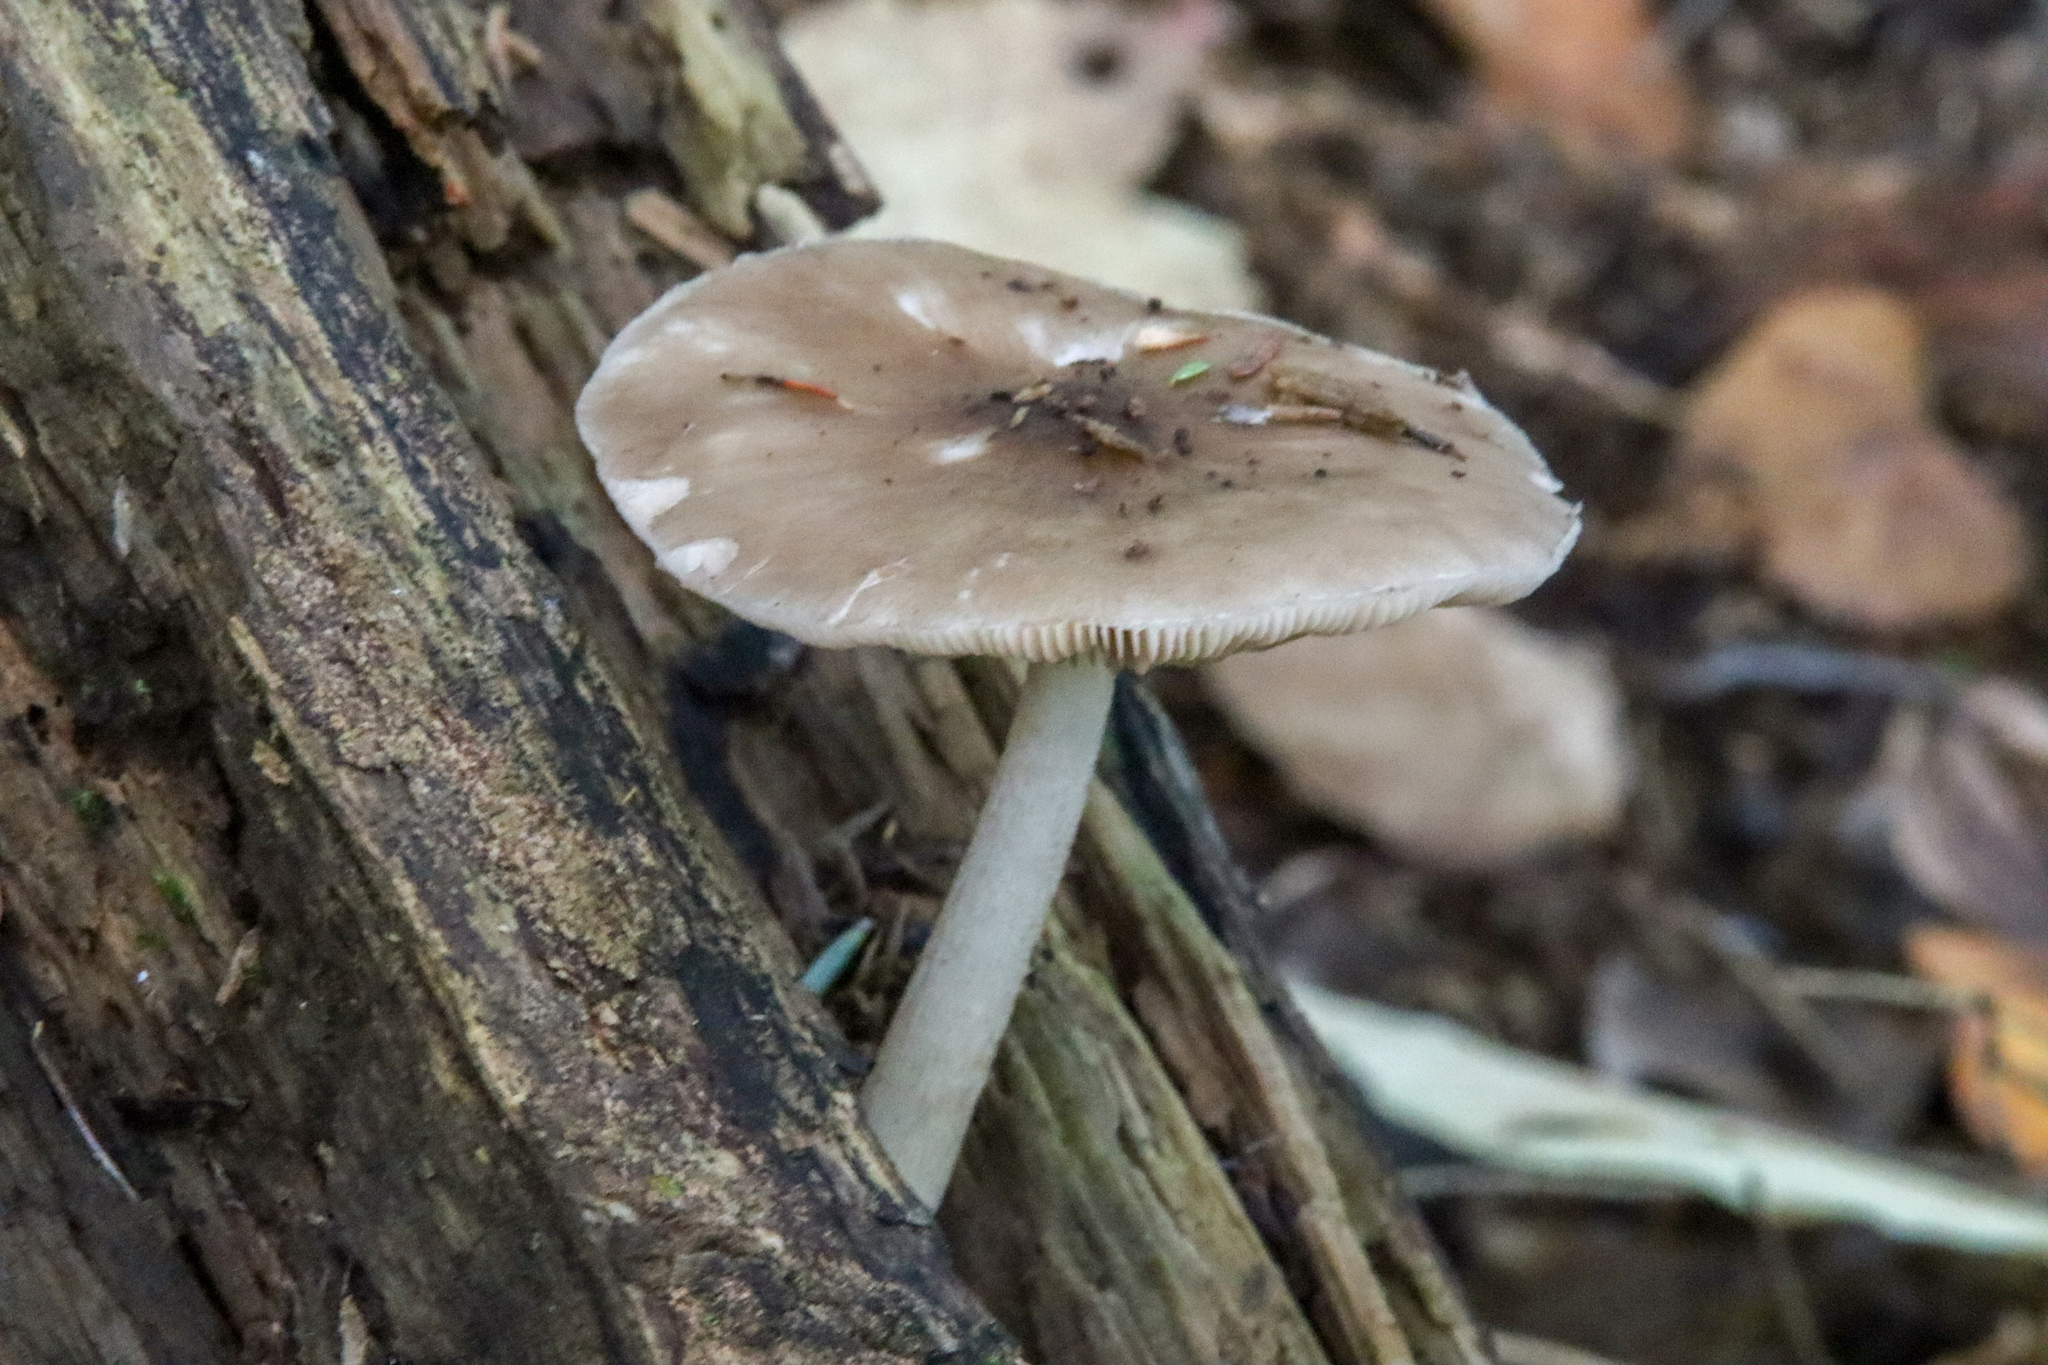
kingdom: Fungi
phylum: Basidiomycota
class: Agaricomycetes
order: Agaricales
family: Pluteaceae
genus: Pluteus
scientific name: Pluteus cervinus
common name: Deer shield
